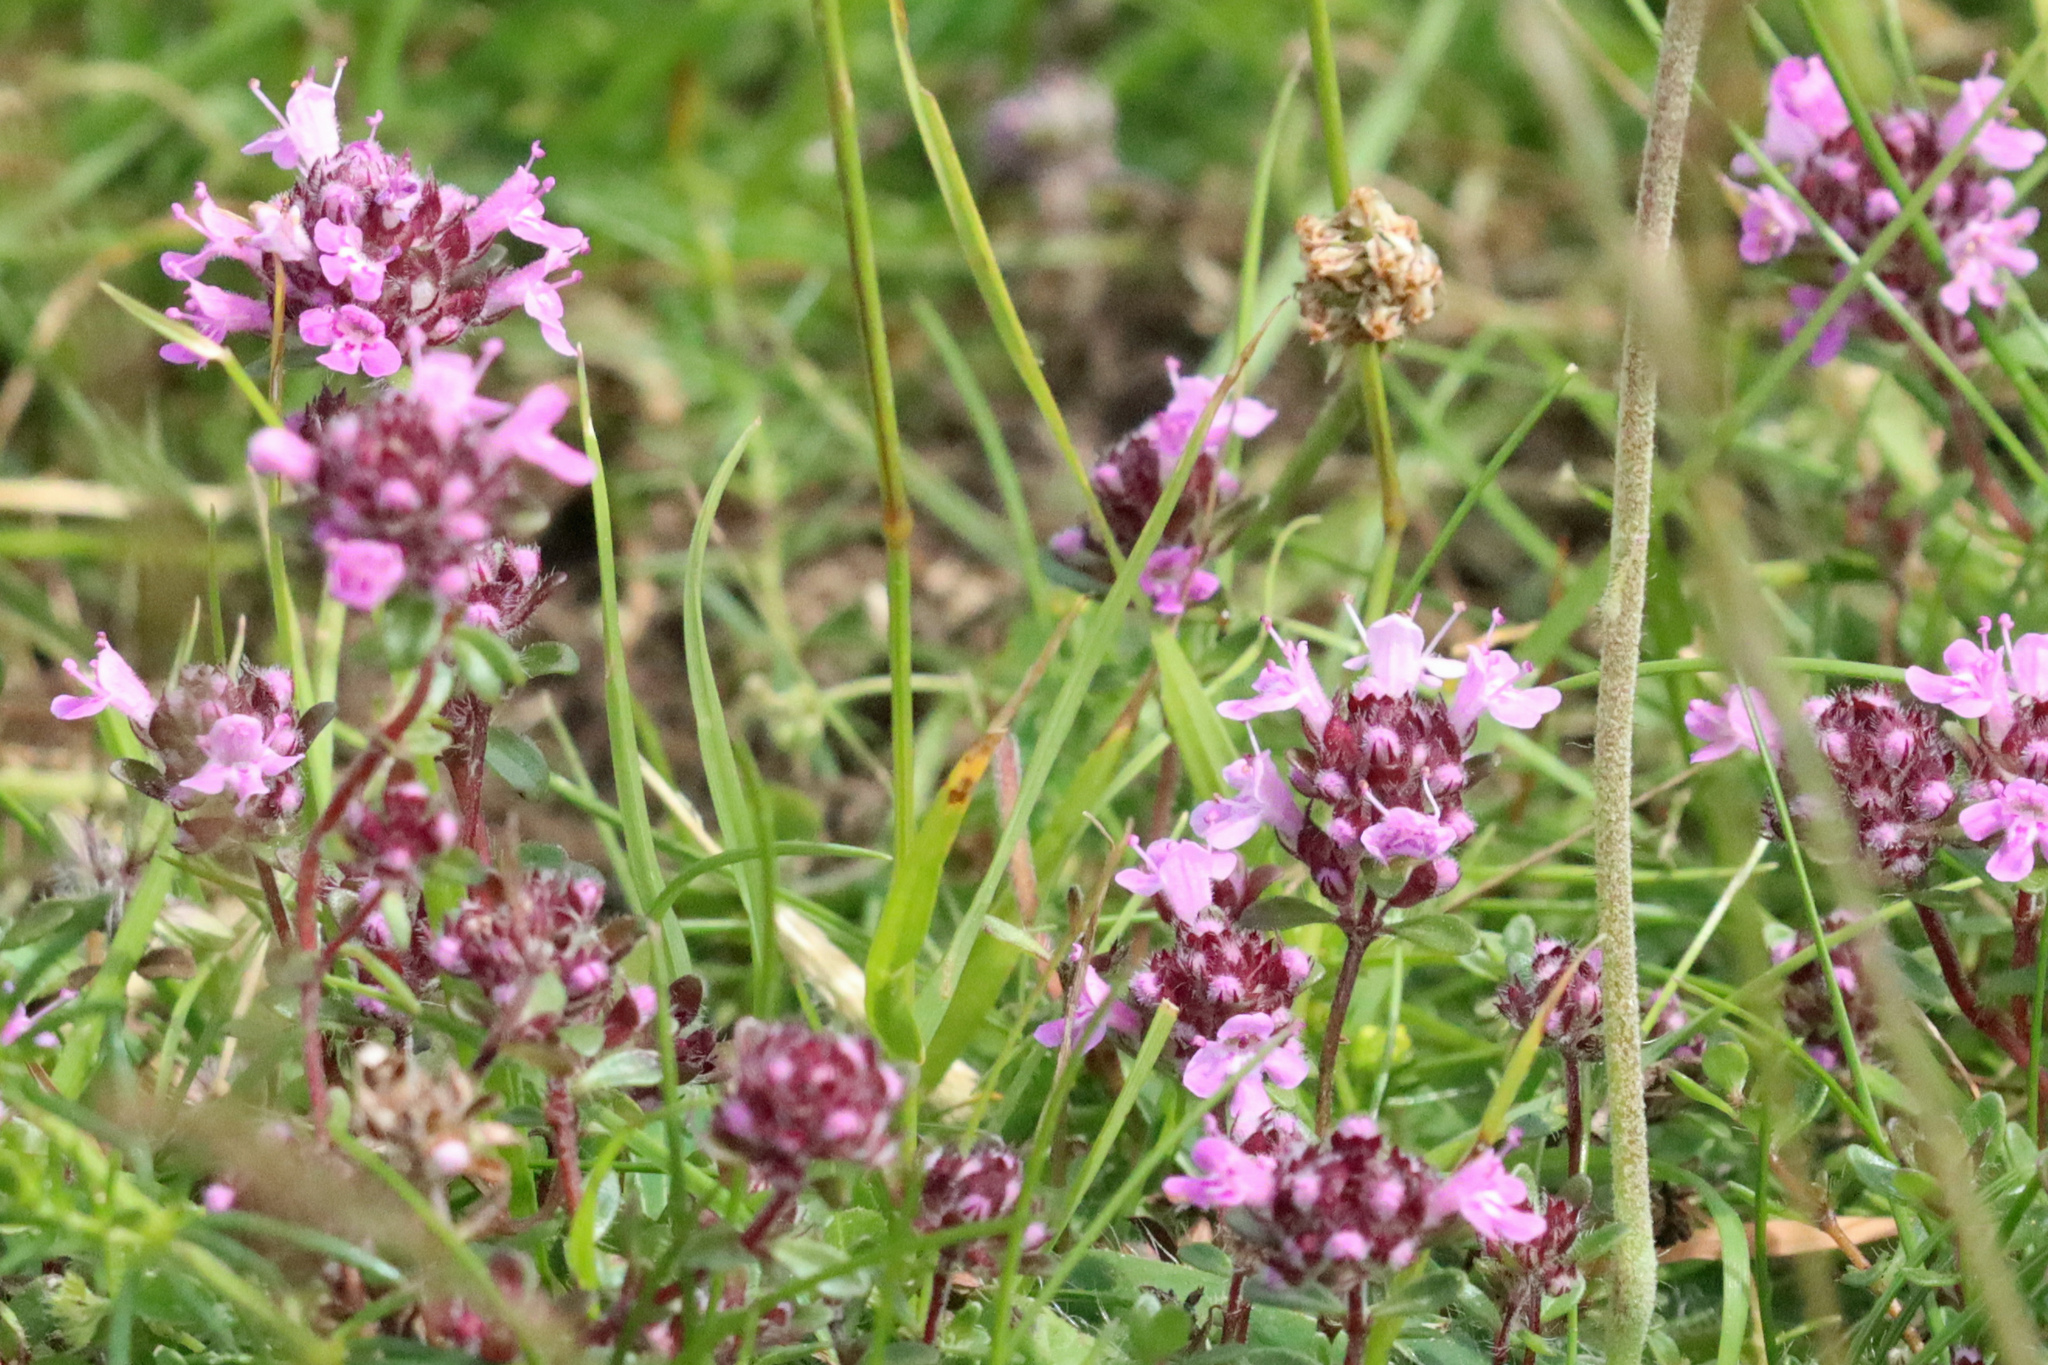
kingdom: Plantae
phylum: Tracheophyta
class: Magnoliopsida
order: Lamiales
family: Lamiaceae
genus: Thymus
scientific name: Thymus praecox
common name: Wild thyme
